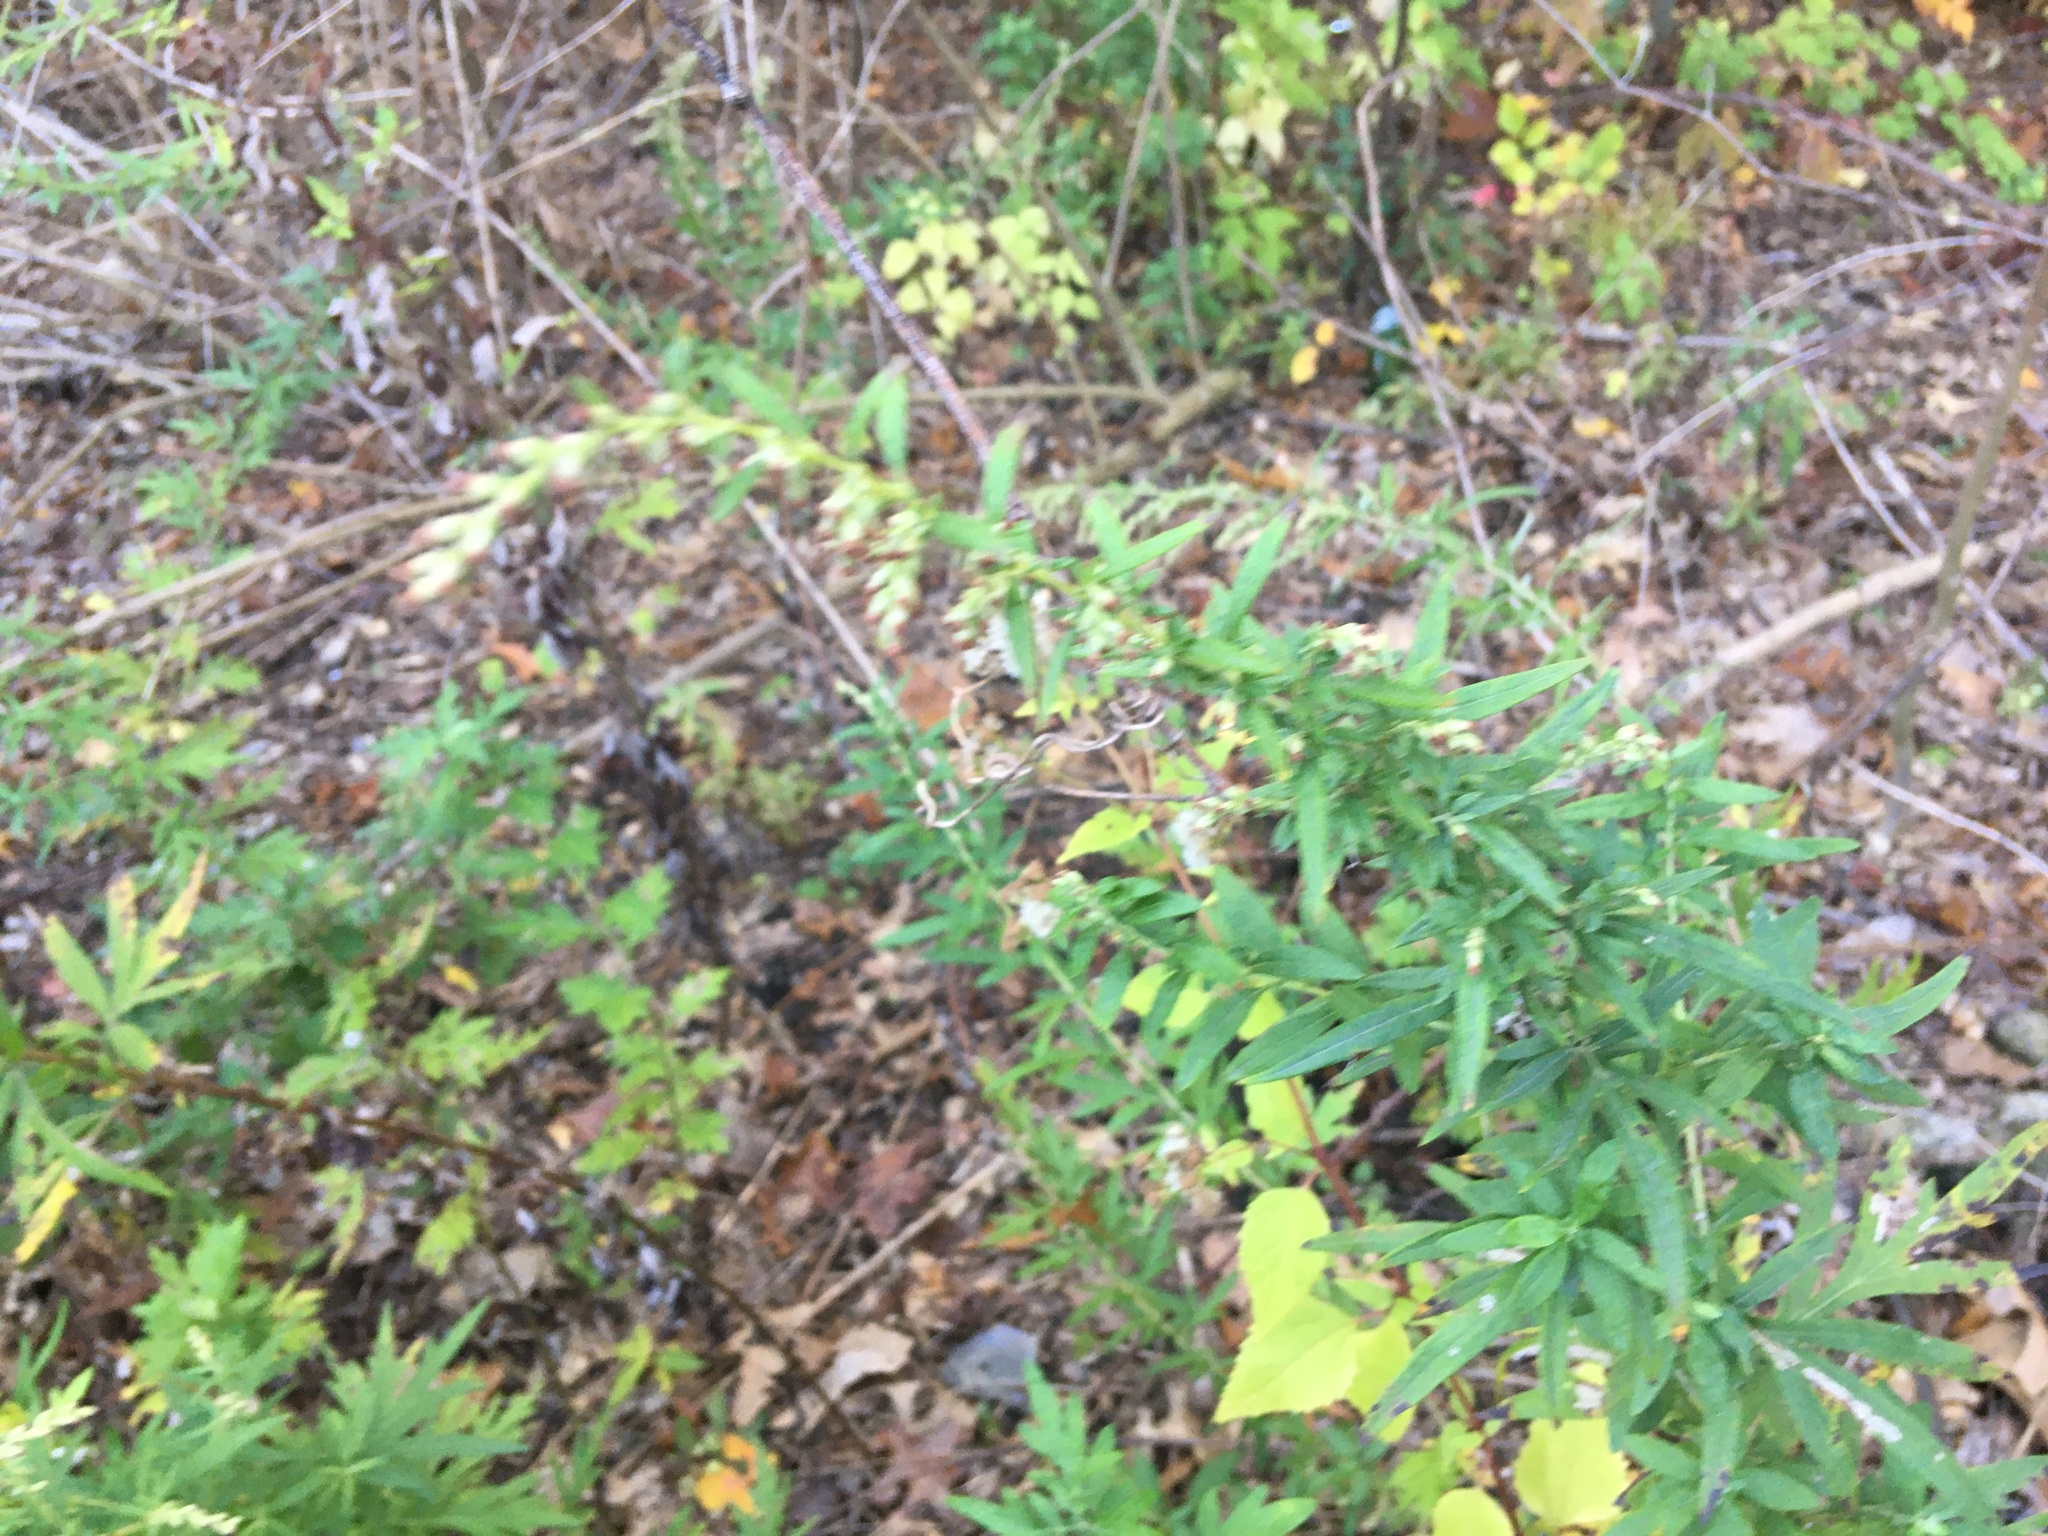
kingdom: Plantae
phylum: Tracheophyta
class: Magnoliopsida
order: Asterales
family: Asteraceae
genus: Artemisia
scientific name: Artemisia vulgaris
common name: Mugwort
